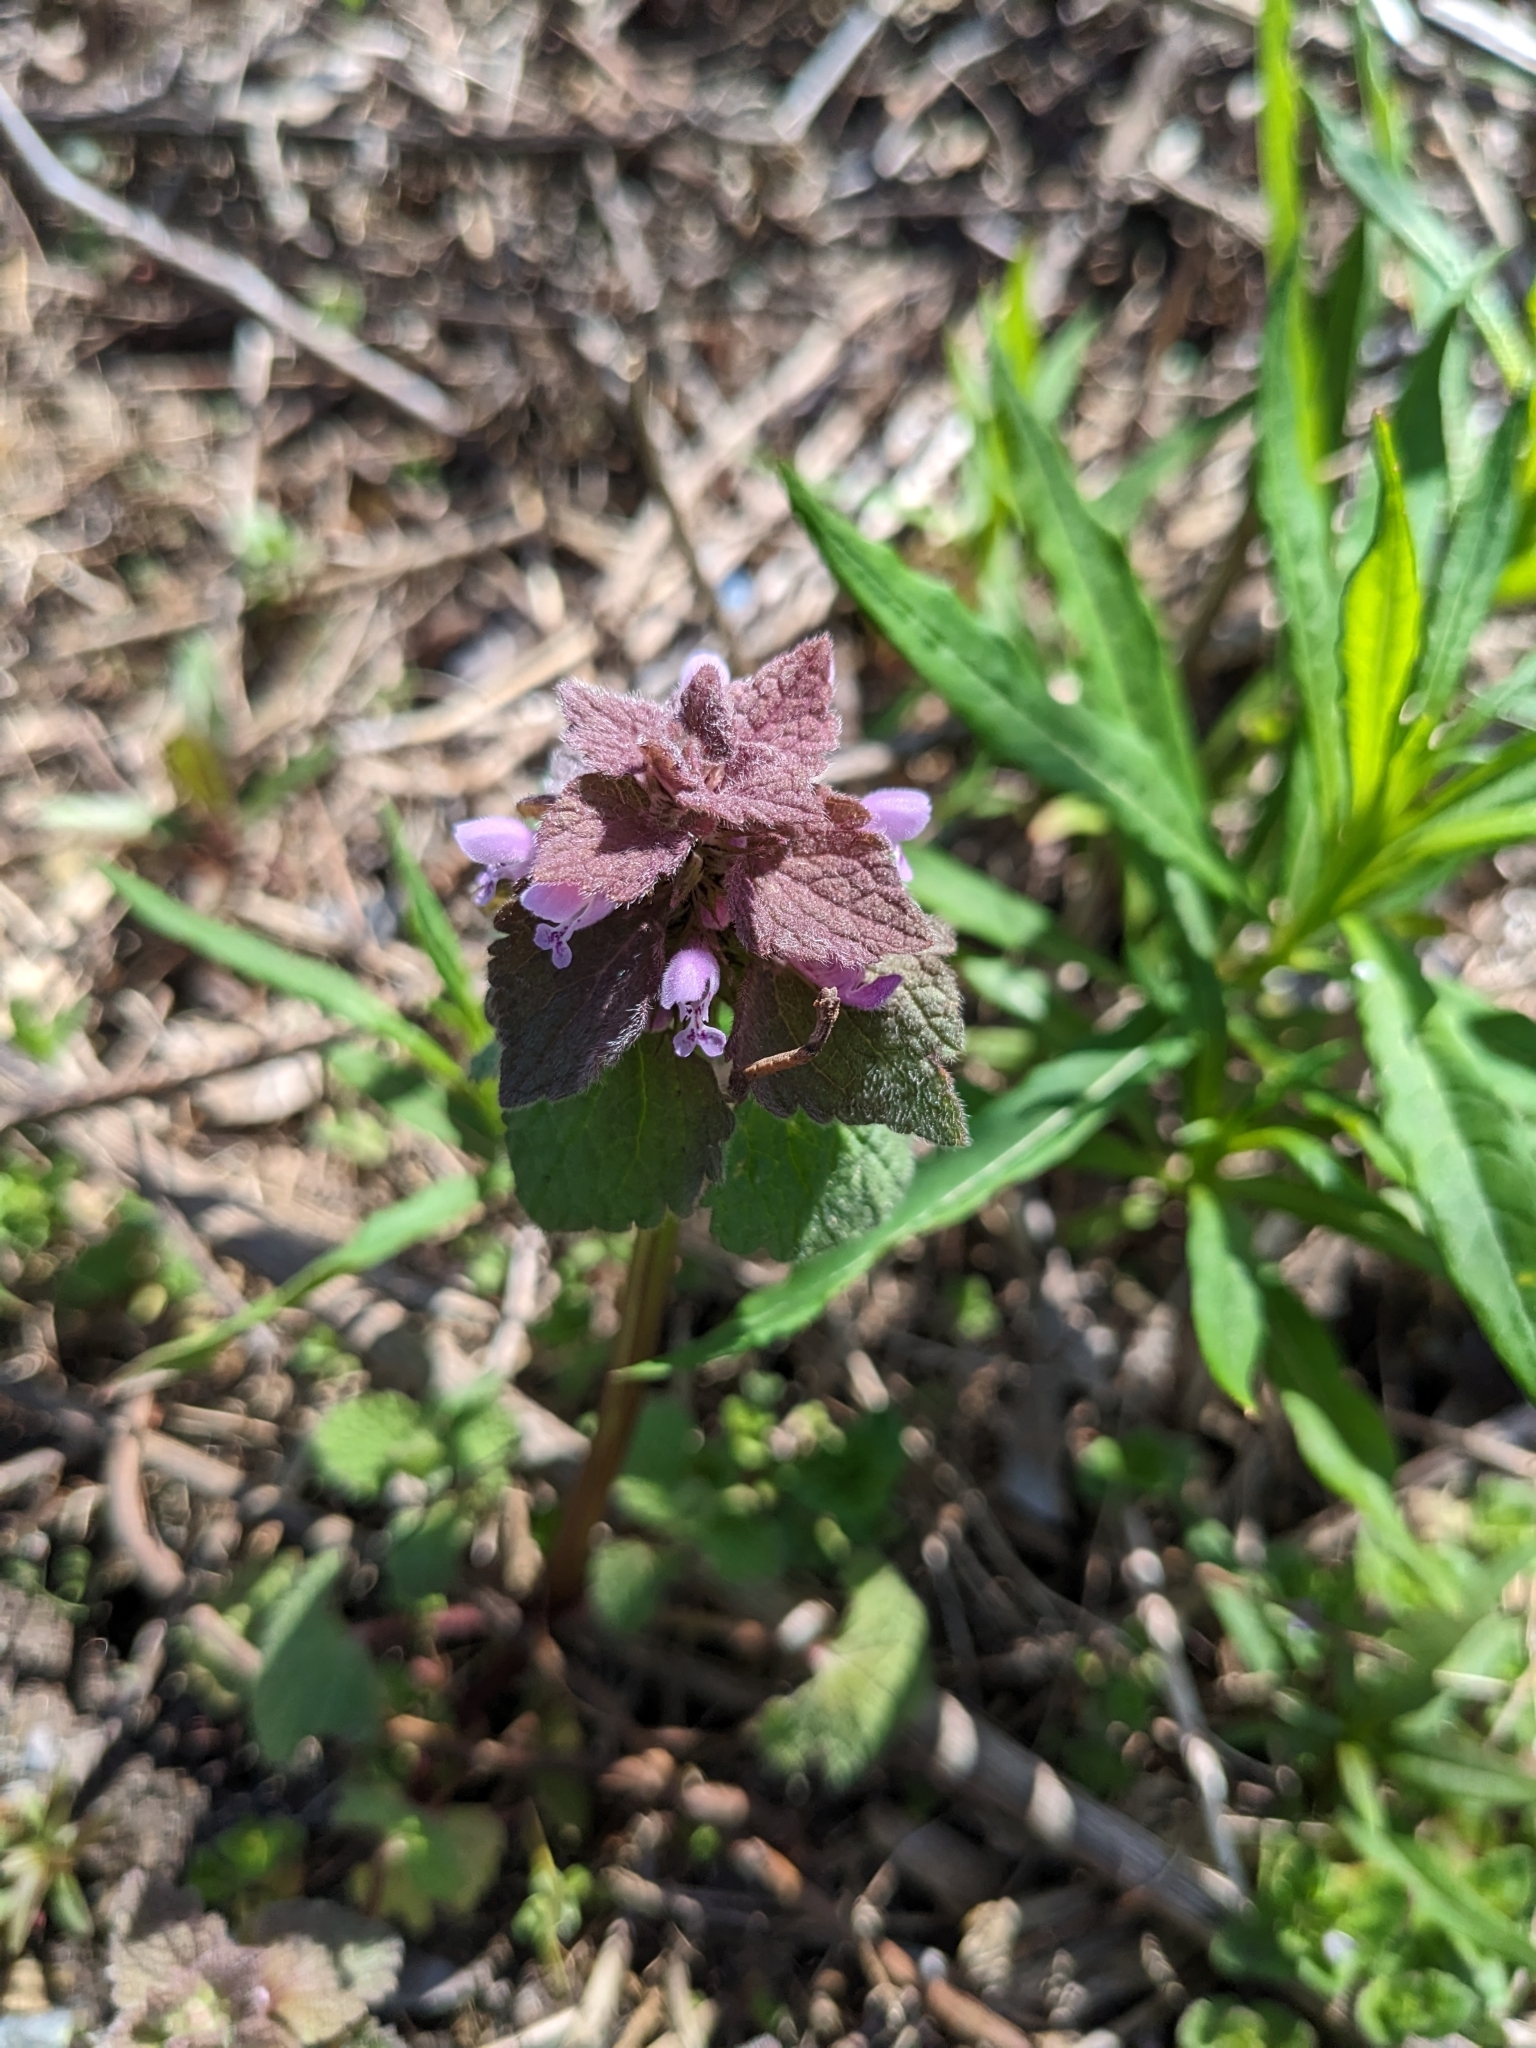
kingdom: Plantae
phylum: Tracheophyta
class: Magnoliopsida
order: Lamiales
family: Lamiaceae
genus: Lamium
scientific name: Lamium purpureum
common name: Red dead-nettle
